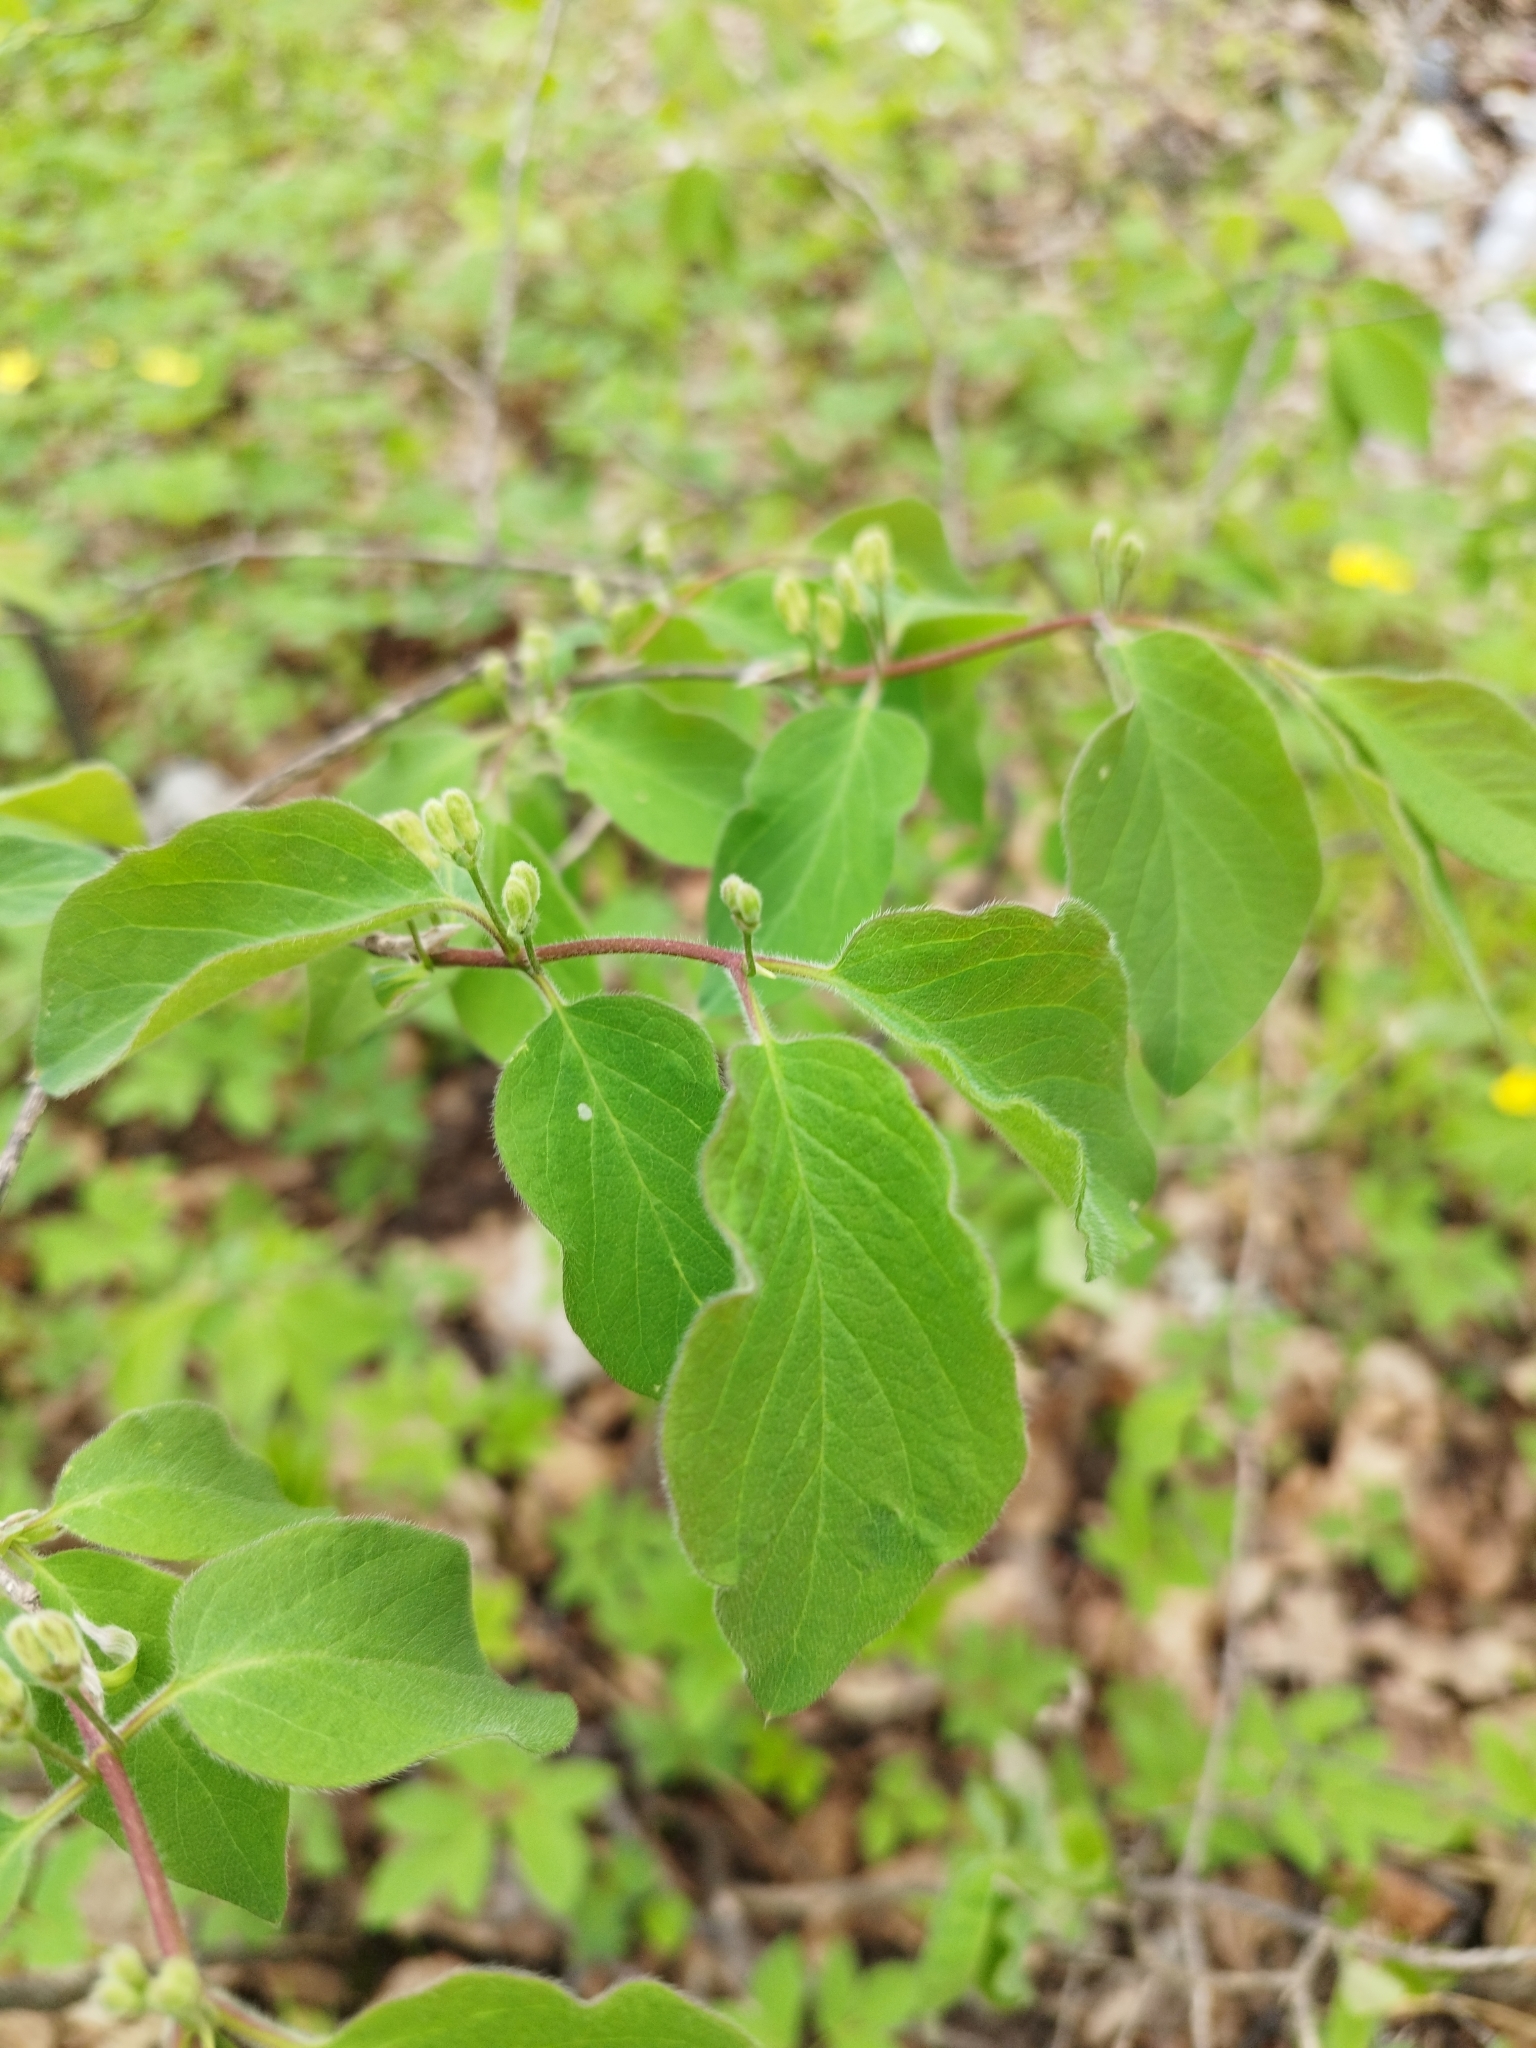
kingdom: Plantae
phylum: Tracheophyta
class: Magnoliopsida
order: Dipsacales
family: Caprifoliaceae
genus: Lonicera
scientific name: Lonicera xylosteum
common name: Fly honeysuckle
